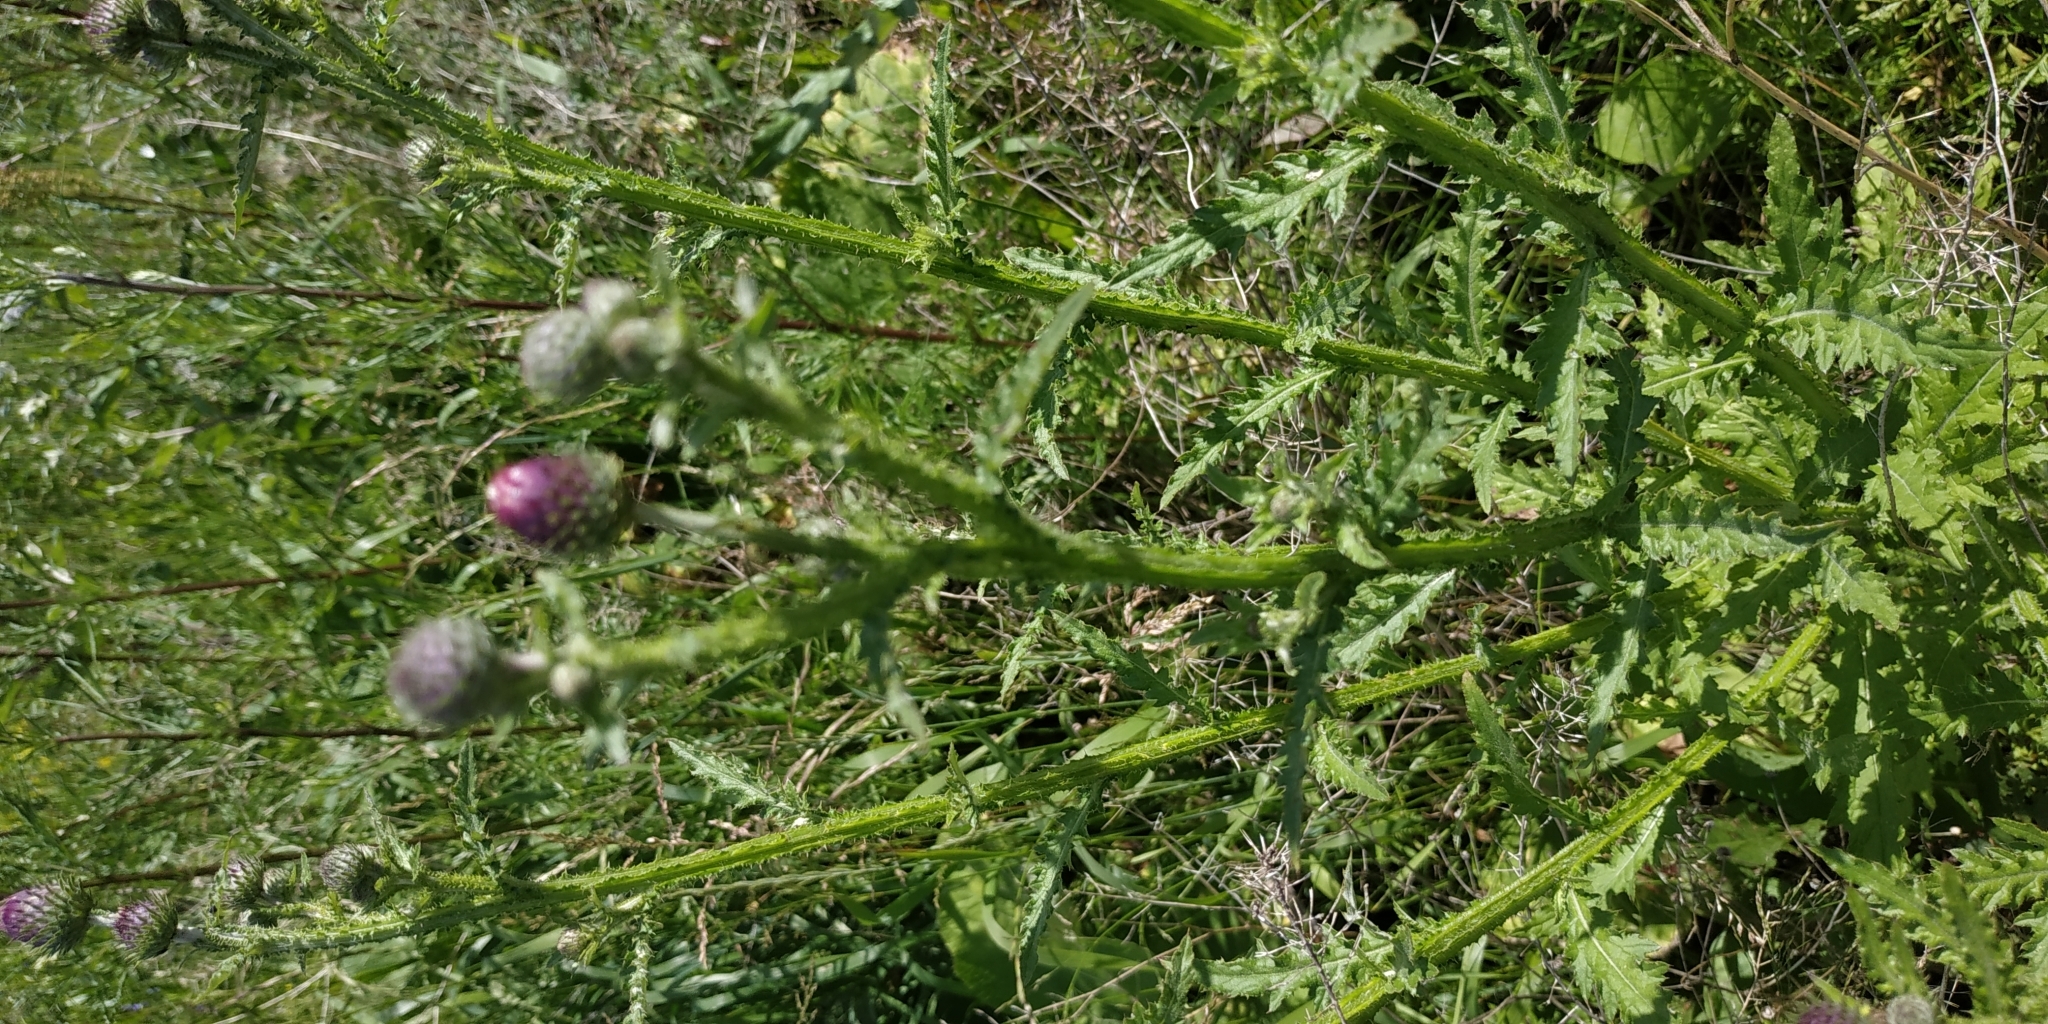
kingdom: Plantae
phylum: Tracheophyta
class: Magnoliopsida
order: Asterales
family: Asteraceae
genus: Carduus
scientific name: Carduus crispus
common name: Welted thistle
